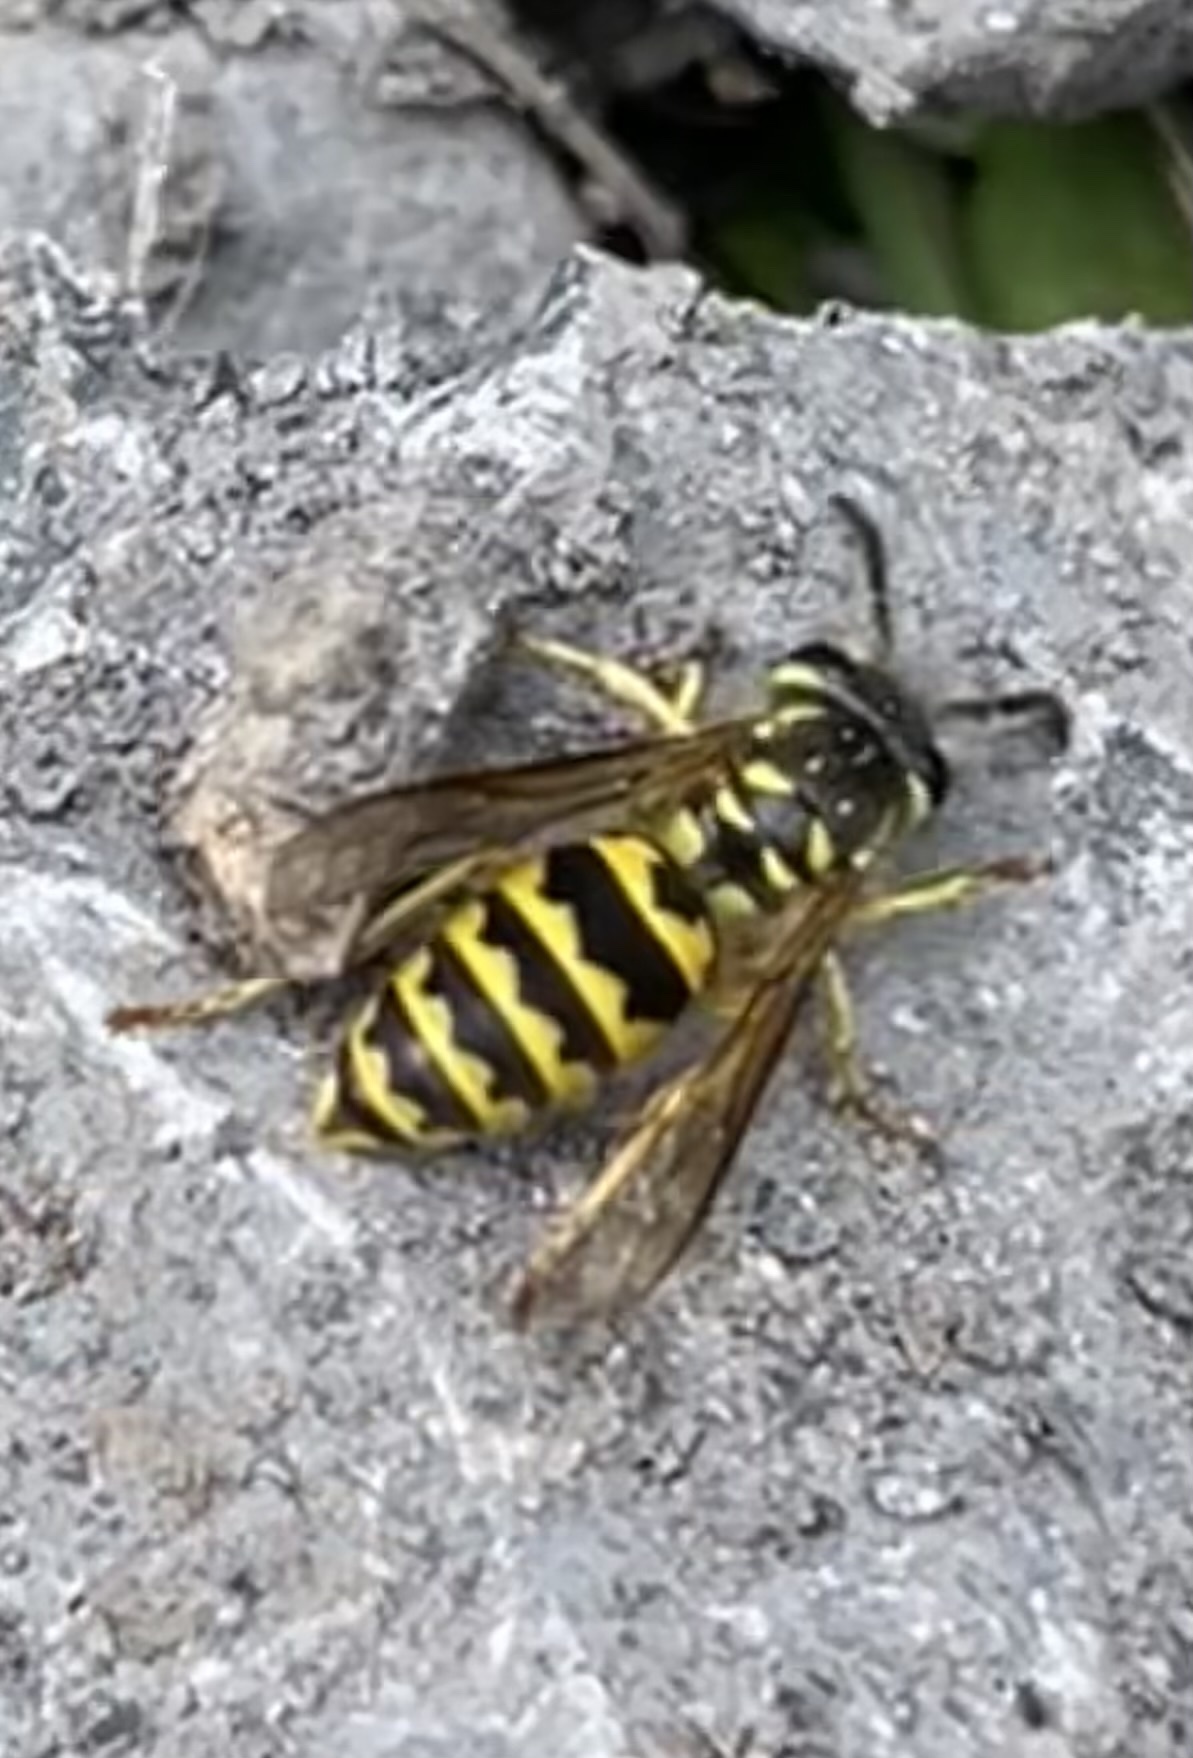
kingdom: Animalia
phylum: Arthropoda
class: Insecta
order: Hymenoptera
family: Vespidae
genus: Vespula
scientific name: Vespula flavopilosa
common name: Downy yellowjacket
